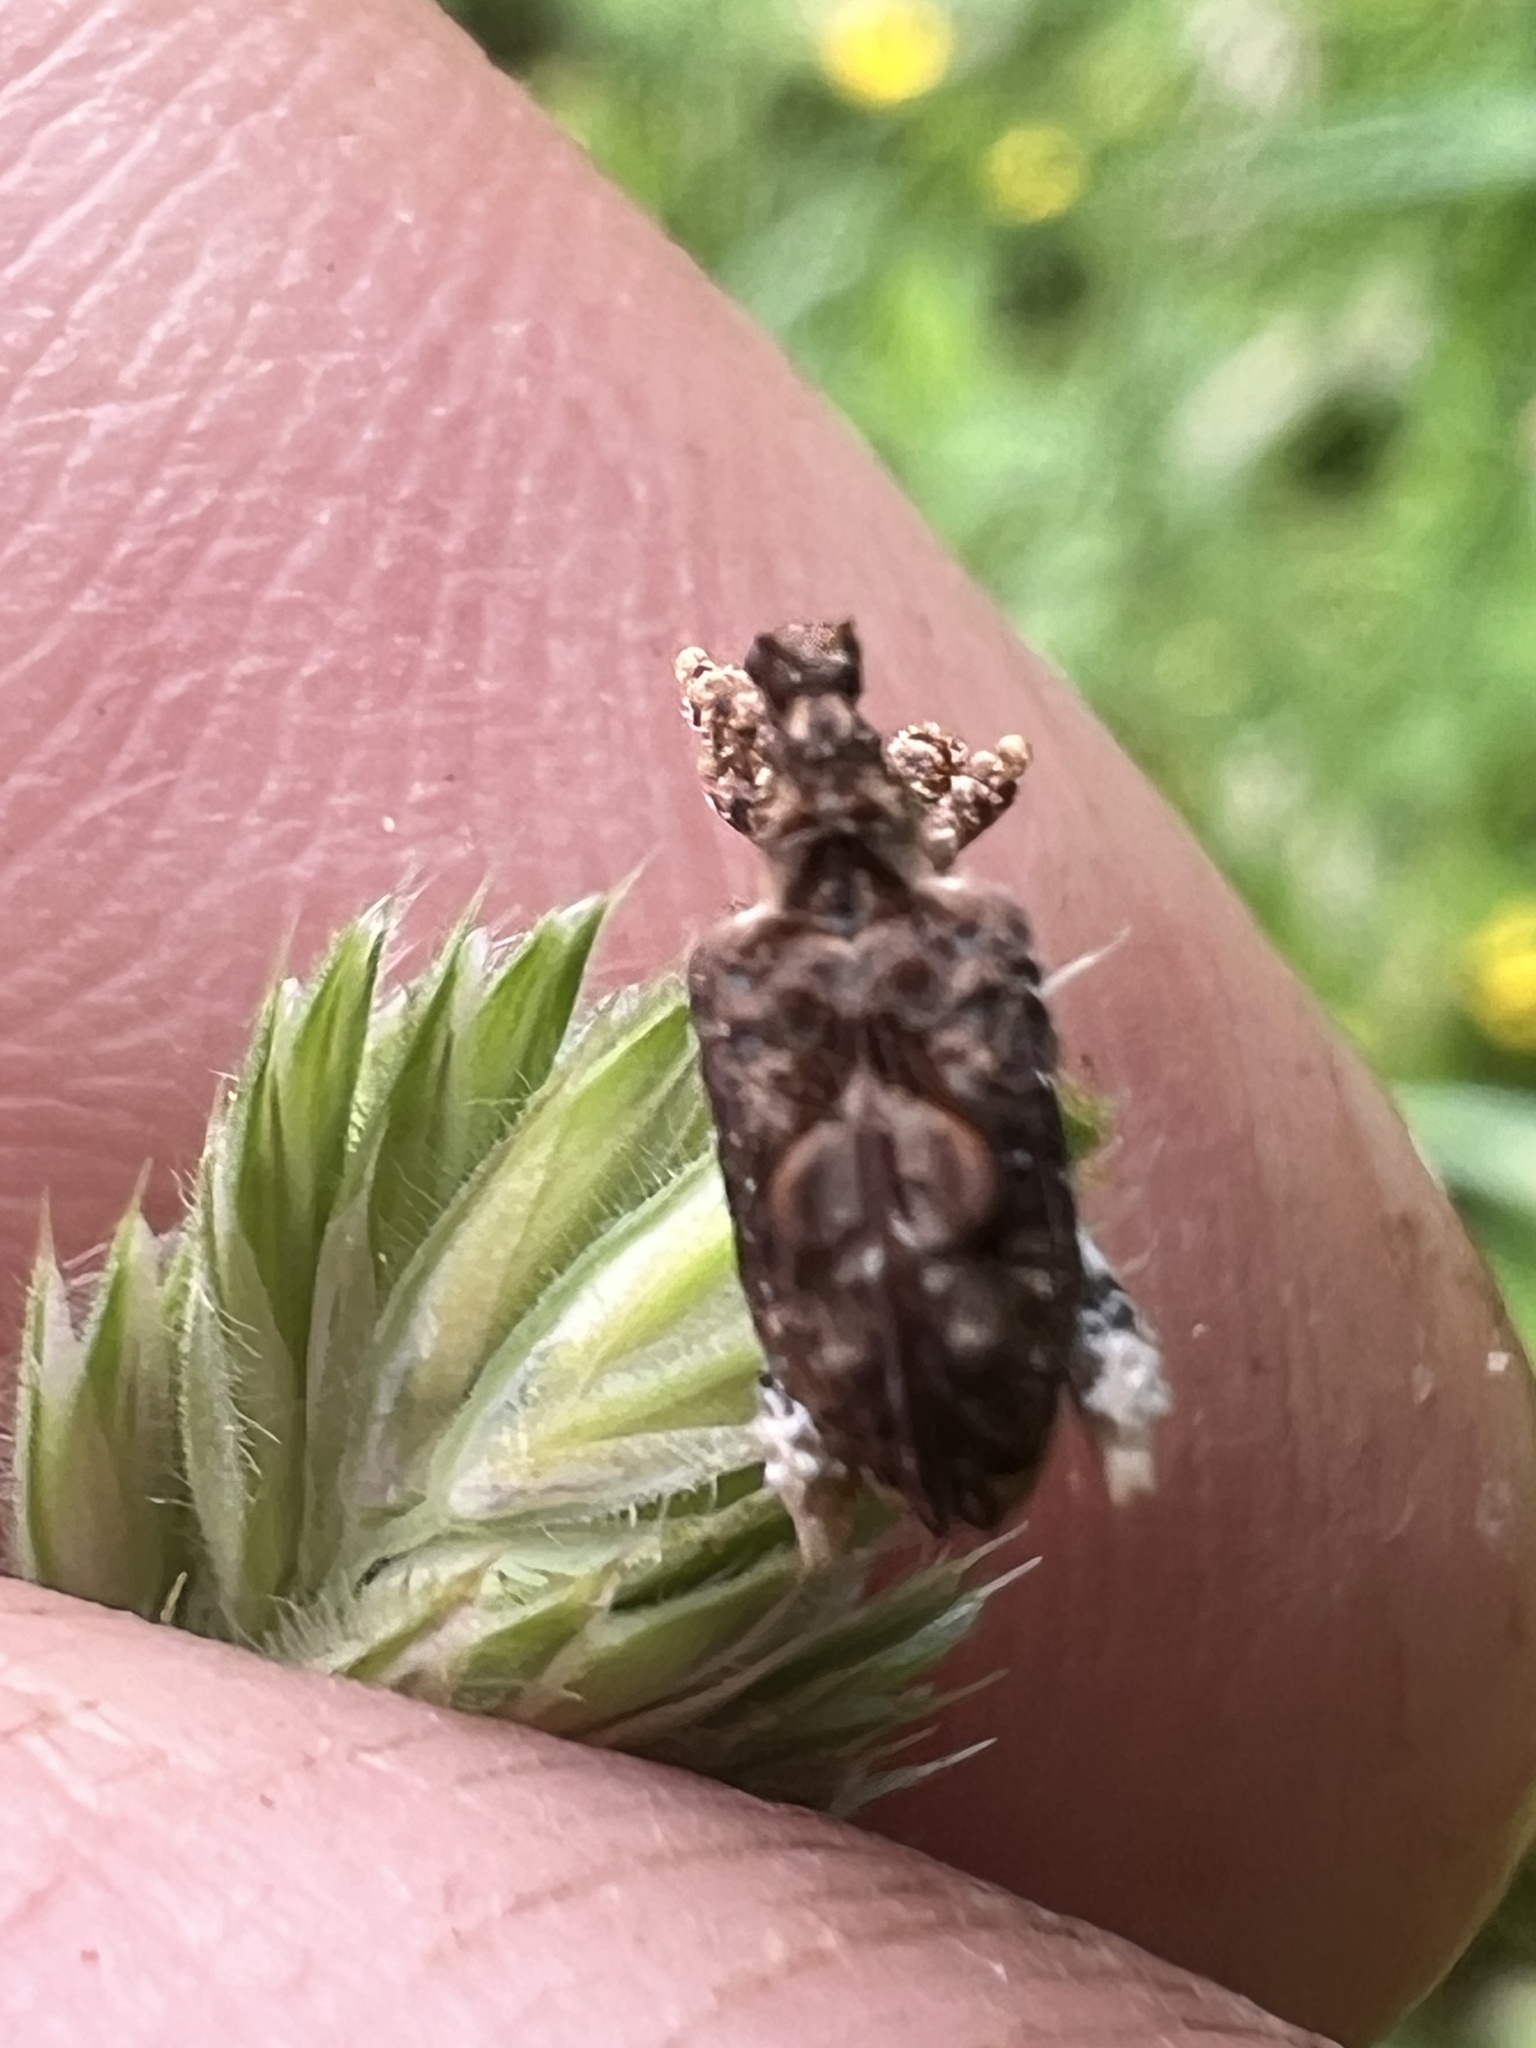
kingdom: Animalia
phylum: Arthropoda
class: Insecta
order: Coleoptera
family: Curculionidae
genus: Stephanorhynchus
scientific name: Stephanorhynchus curvipes
